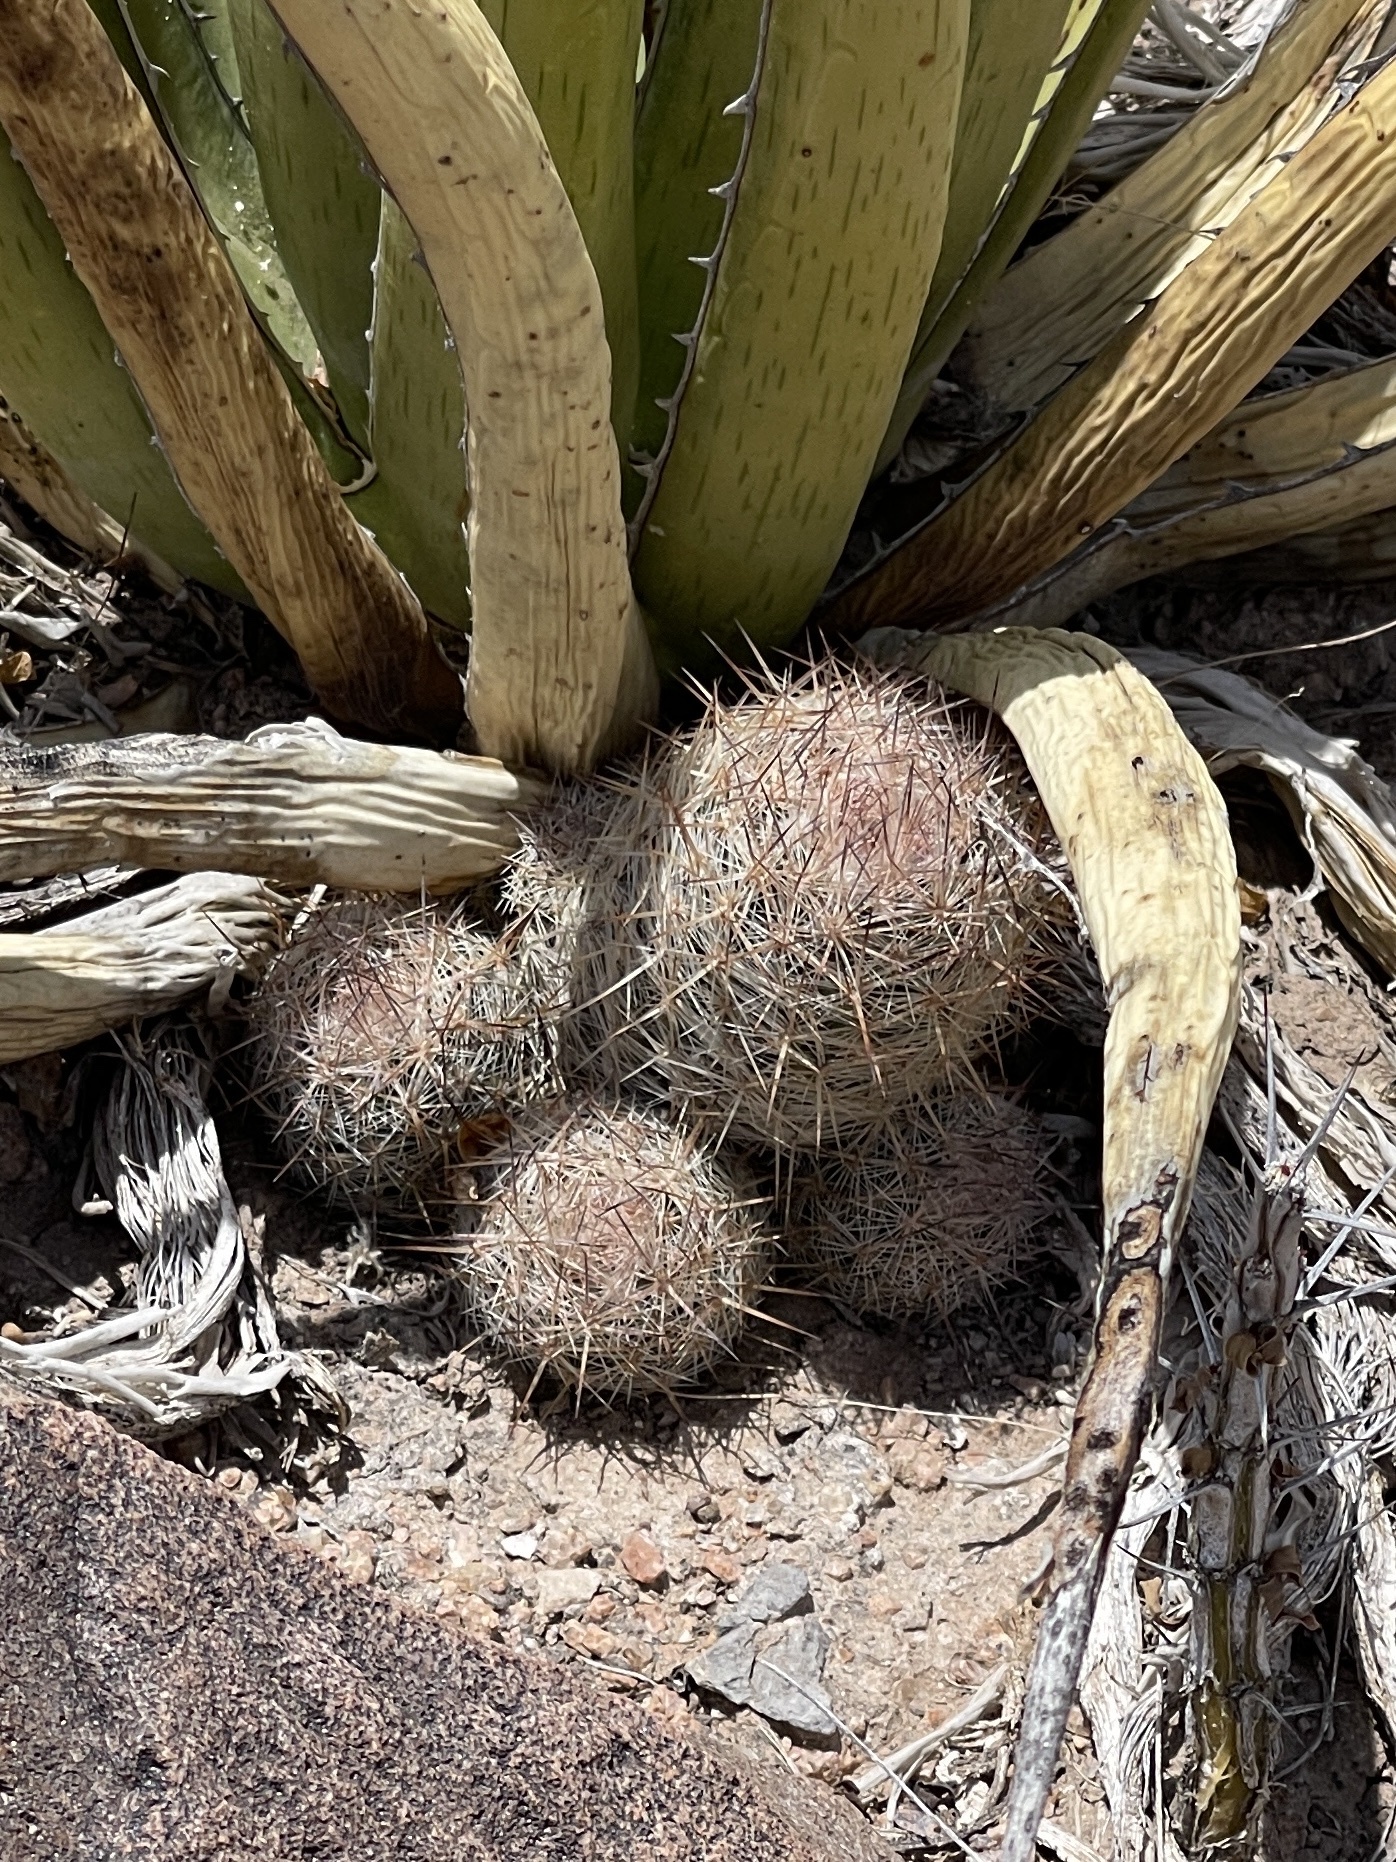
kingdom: Plantae
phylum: Tracheophyta
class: Magnoliopsida
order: Caryophyllales
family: Cactaceae
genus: Pelecyphora
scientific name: Pelecyphora tuberculosa
